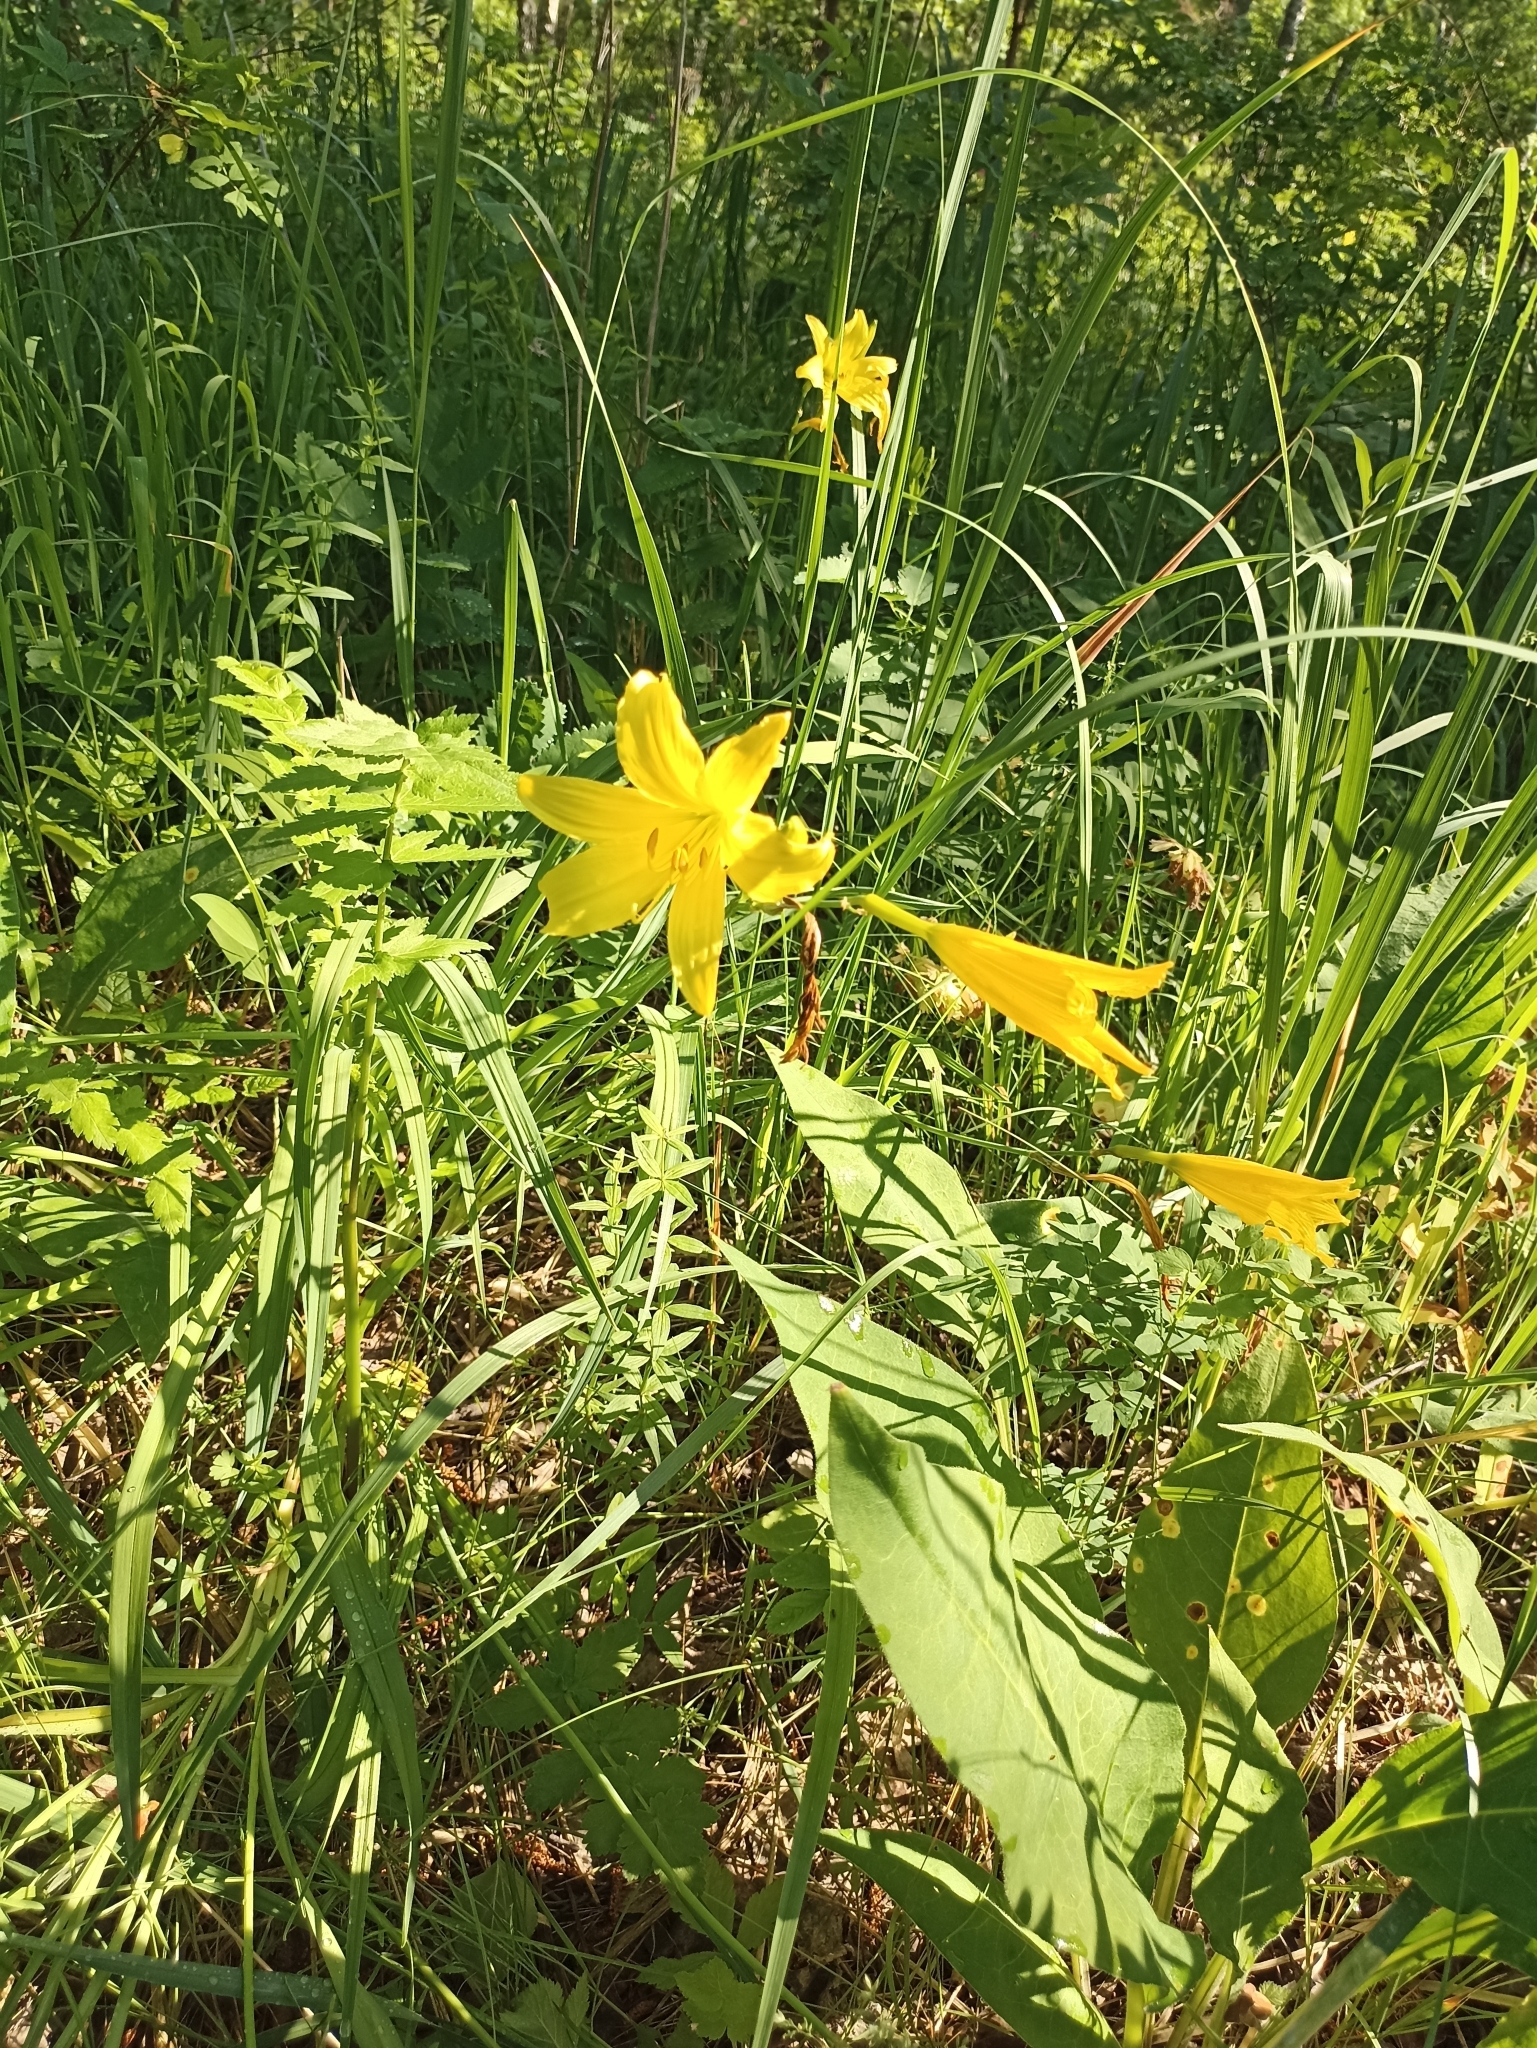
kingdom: Plantae
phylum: Tracheophyta
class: Liliopsida
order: Asparagales
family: Asphodelaceae
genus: Hemerocallis
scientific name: Hemerocallis minor
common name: Small daylily
